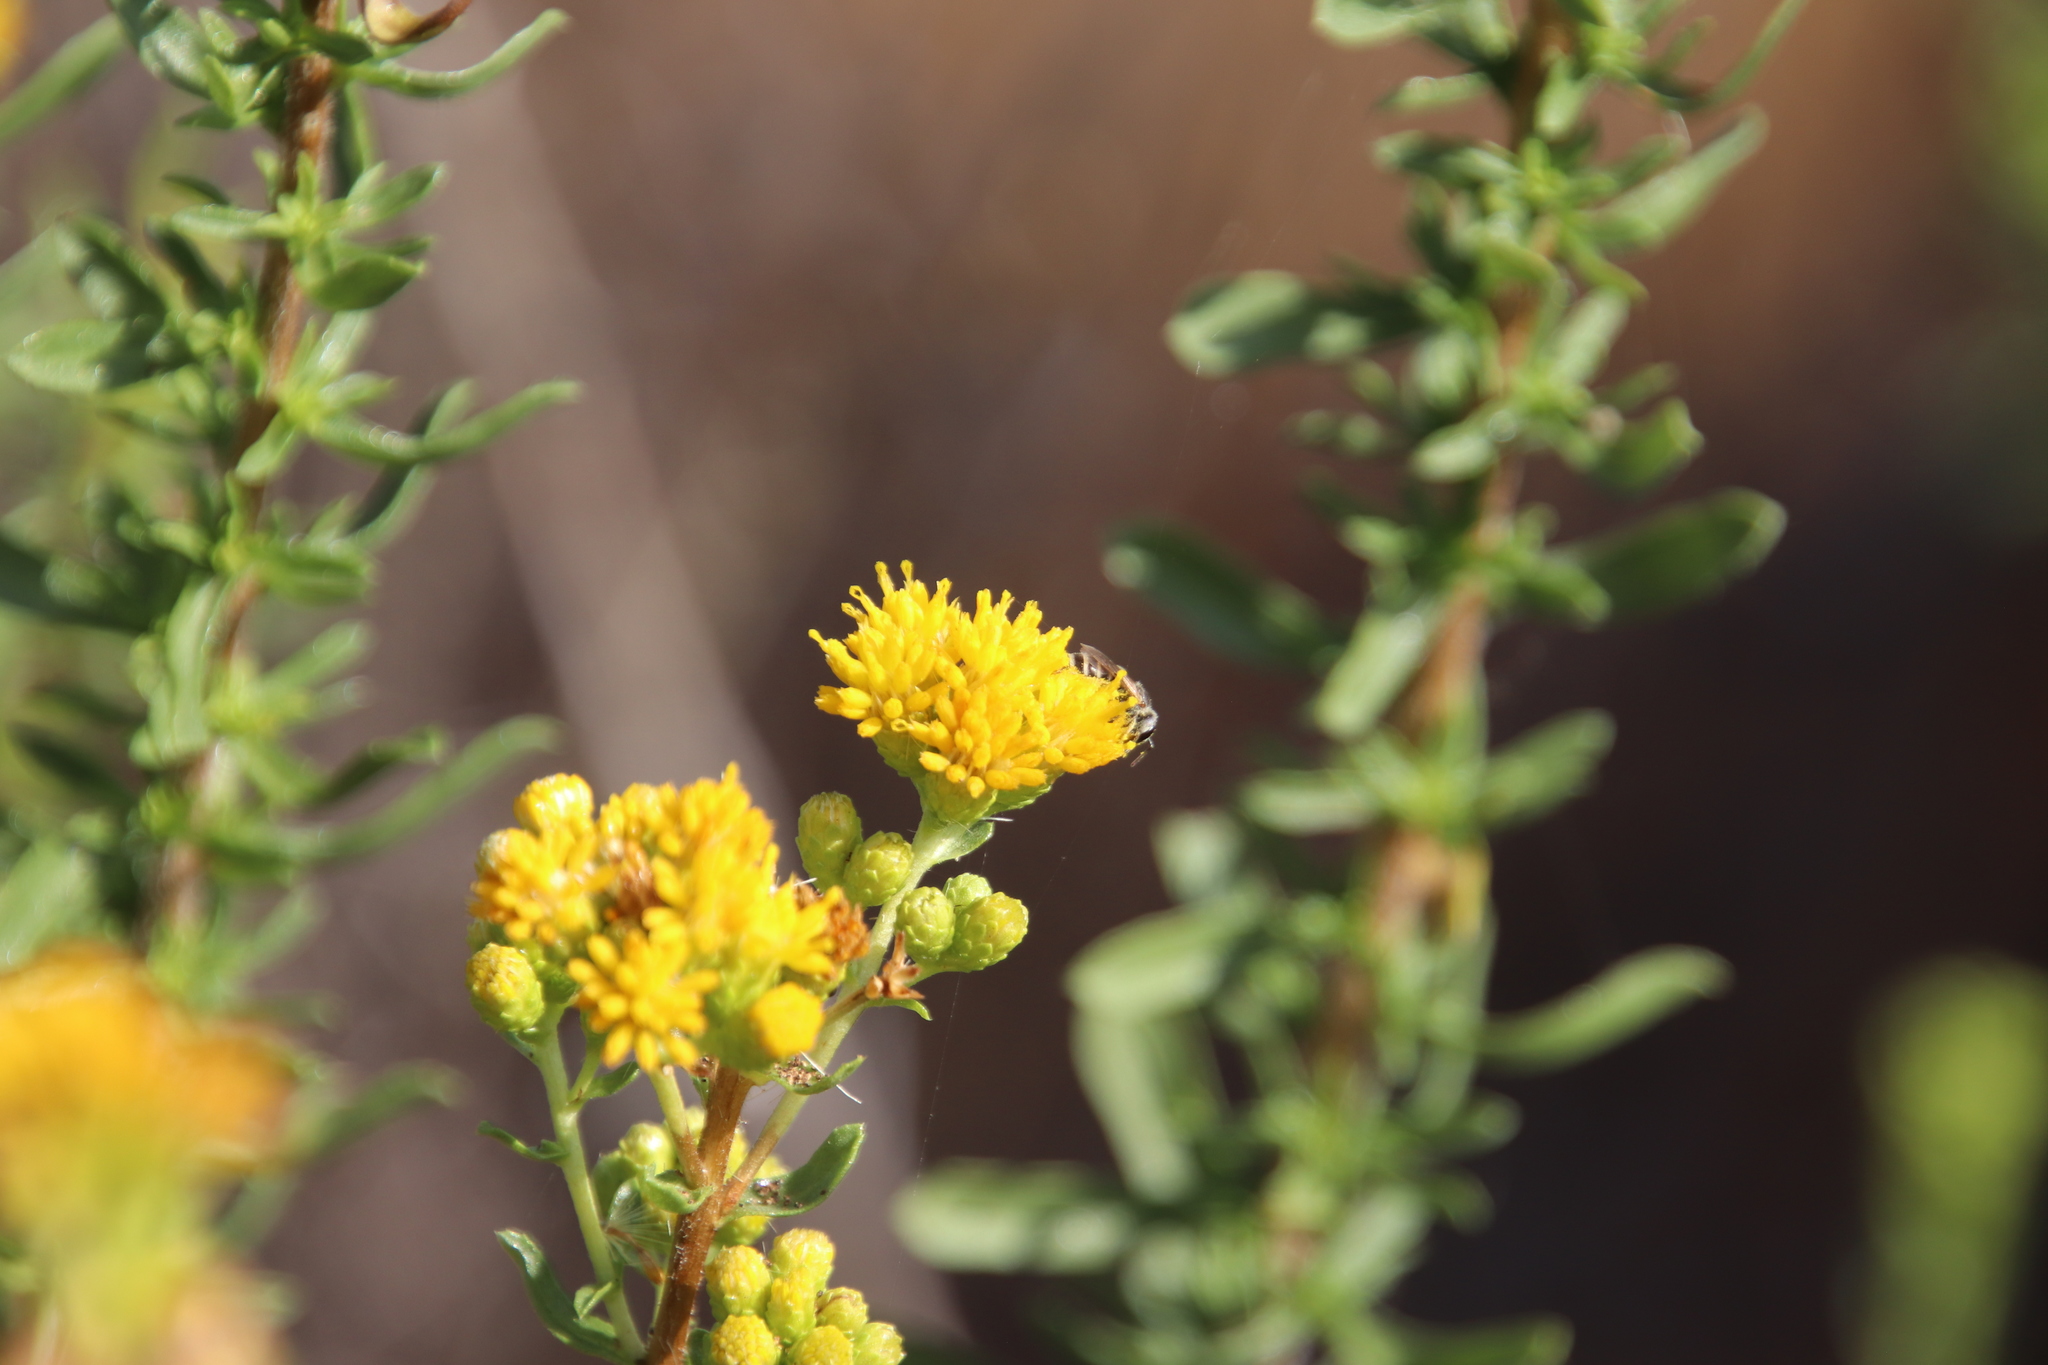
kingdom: Plantae
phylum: Tracheophyta
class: Magnoliopsida
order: Asterales
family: Asteraceae
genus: Isocoma
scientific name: Isocoma menziesii
